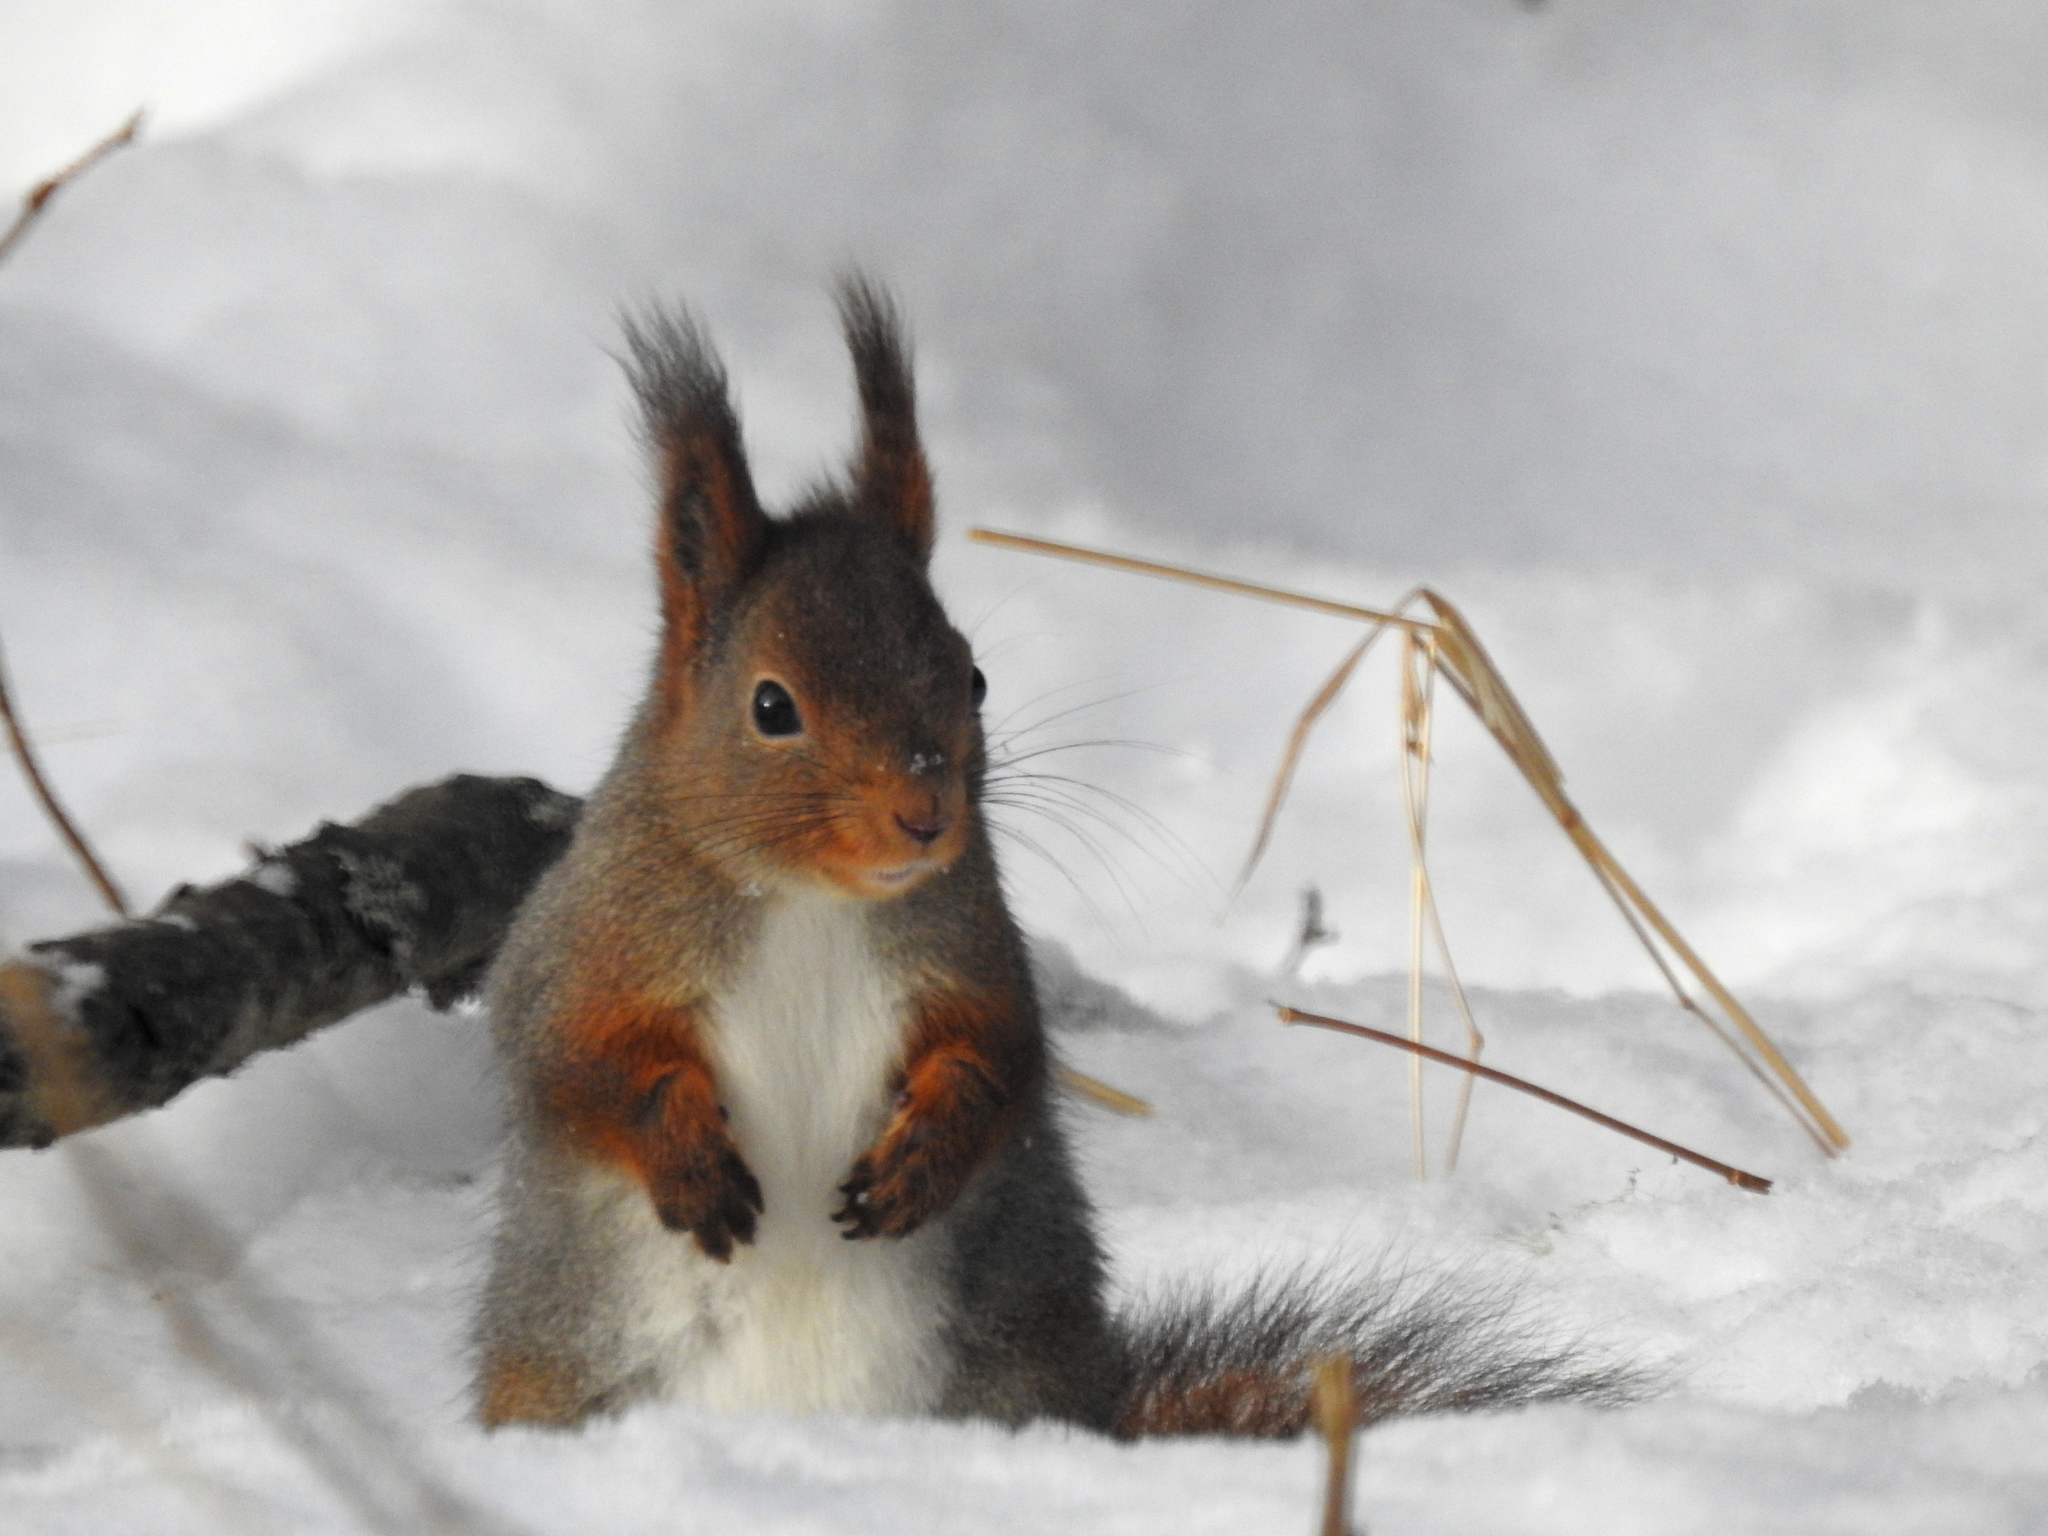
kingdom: Animalia
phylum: Chordata
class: Mammalia
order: Rodentia
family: Sciuridae
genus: Sciurus
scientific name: Sciurus vulgaris
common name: Eurasian red squirrel
